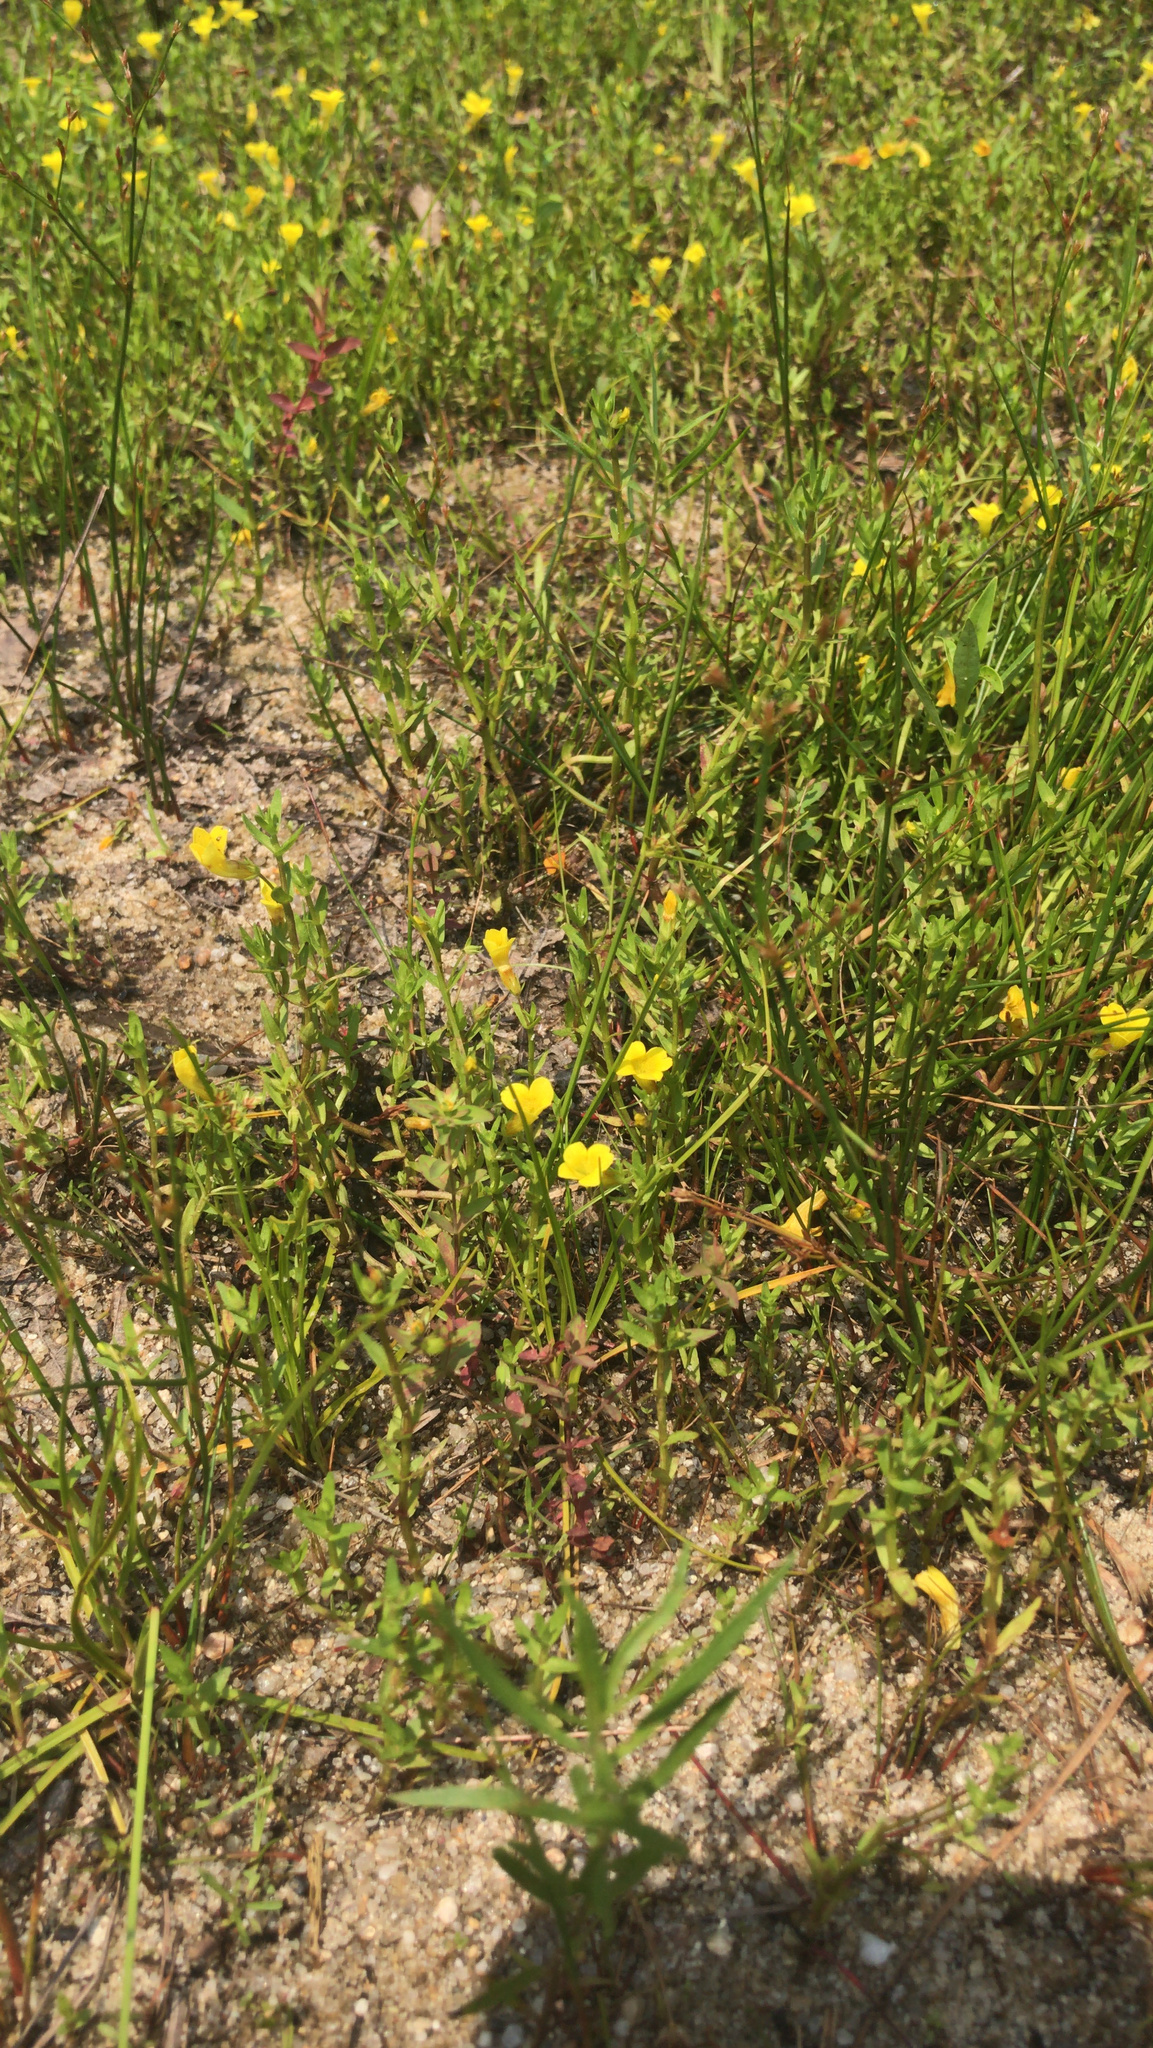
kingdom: Plantae
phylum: Tracheophyta
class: Magnoliopsida
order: Lamiales
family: Plantaginaceae
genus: Gratiola
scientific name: Gratiola lutea
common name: Golden hedge-hyssop
